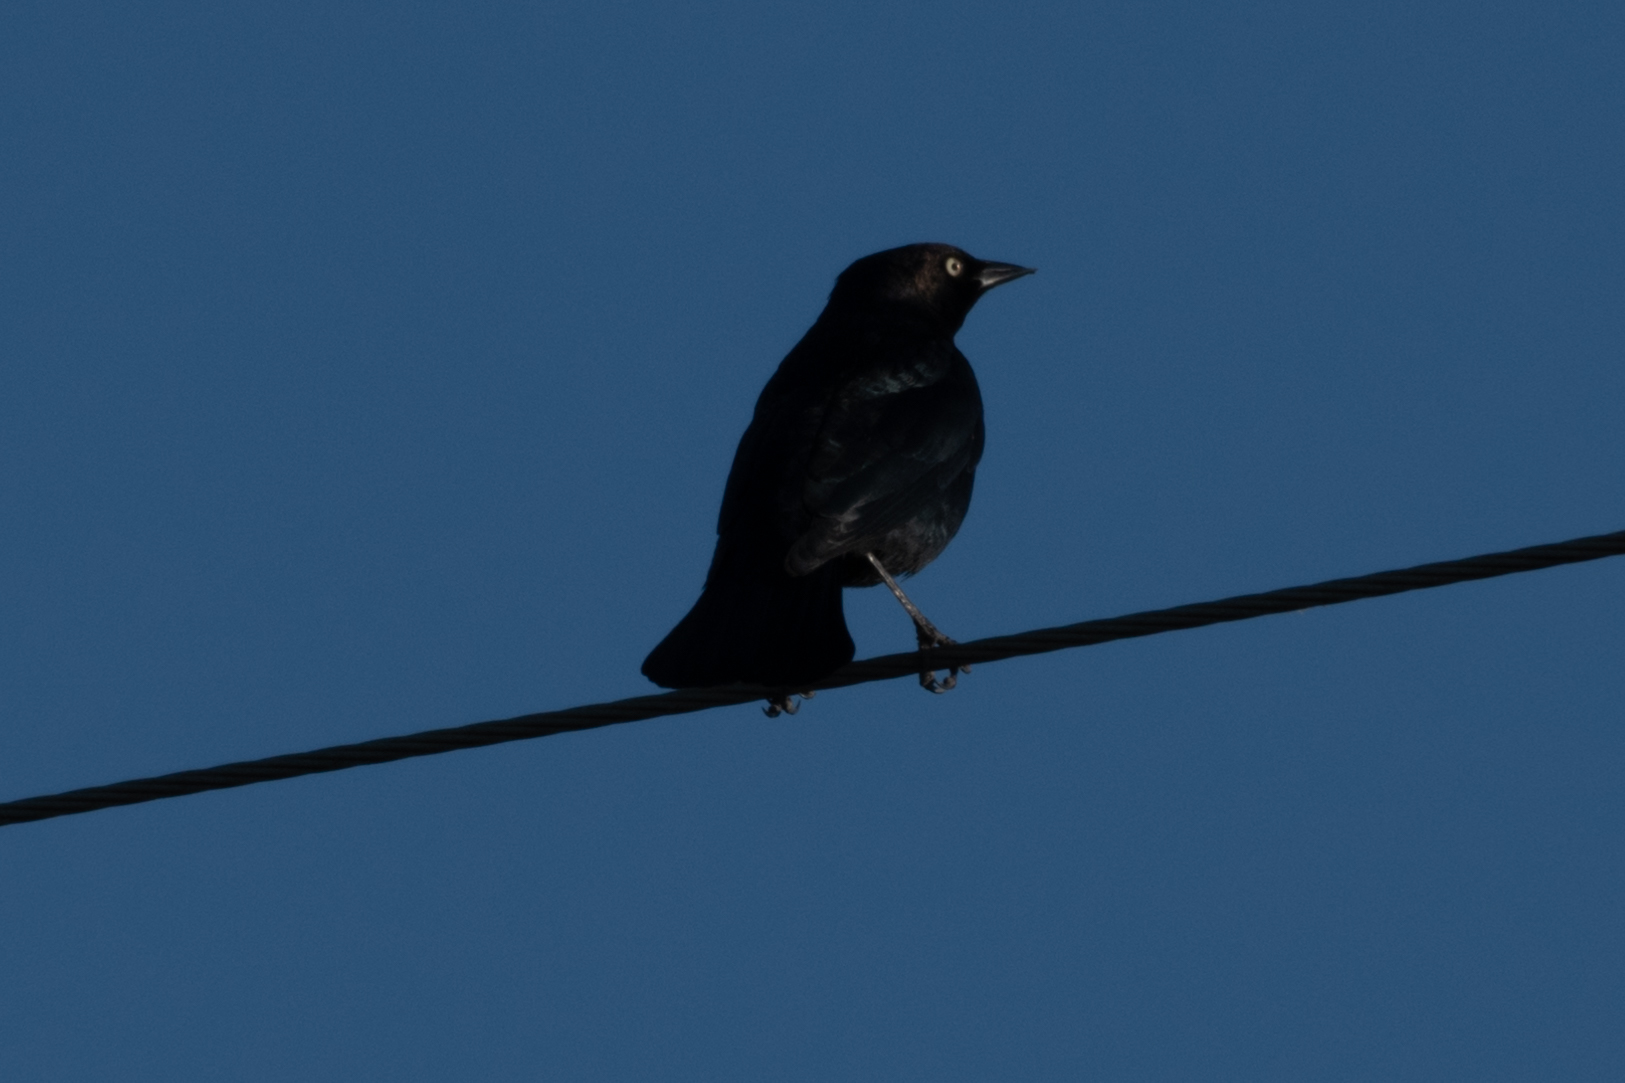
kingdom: Animalia
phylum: Chordata
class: Aves
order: Passeriformes
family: Icteridae
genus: Euphagus
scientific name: Euphagus cyanocephalus
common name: Brewer's blackbird
